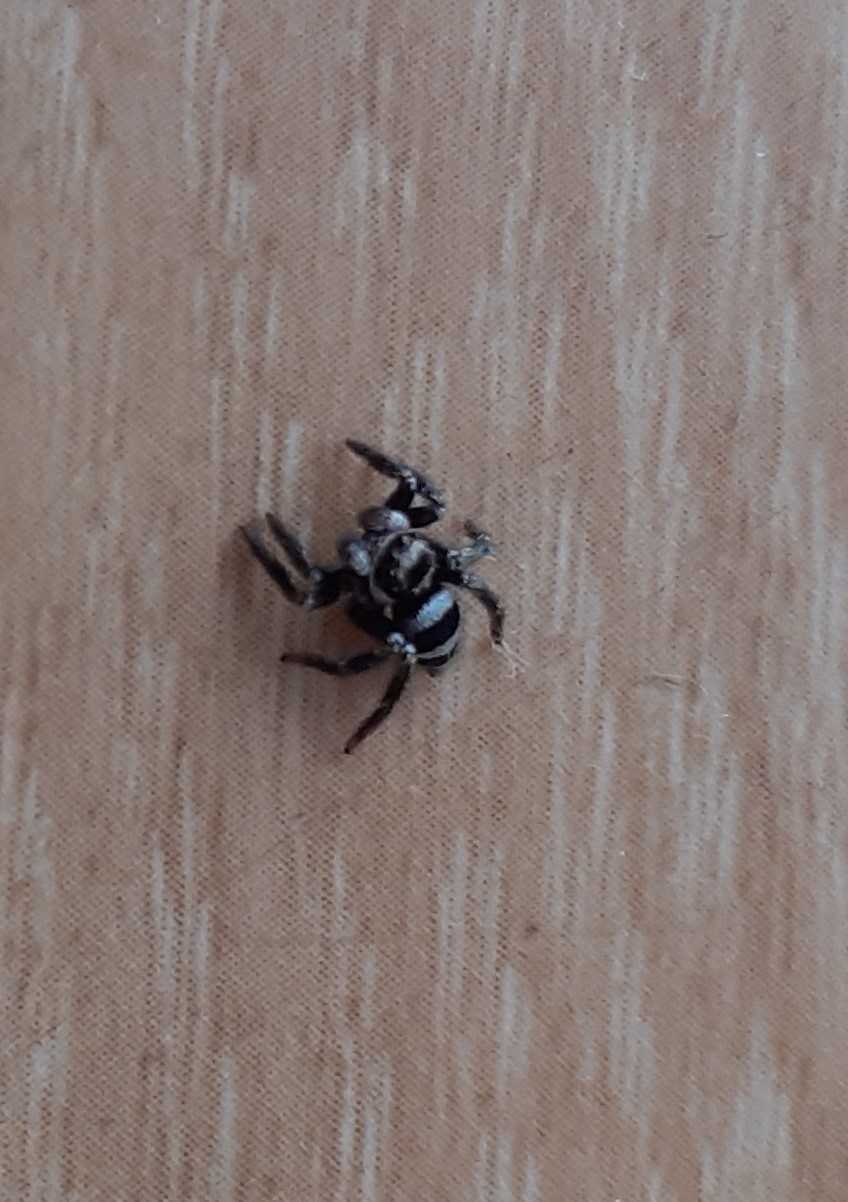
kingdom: Animalia
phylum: Arthropoda
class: Arachnida
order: Araneae
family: Salticidae
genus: Corythalia
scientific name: Corythalia argentinensis
